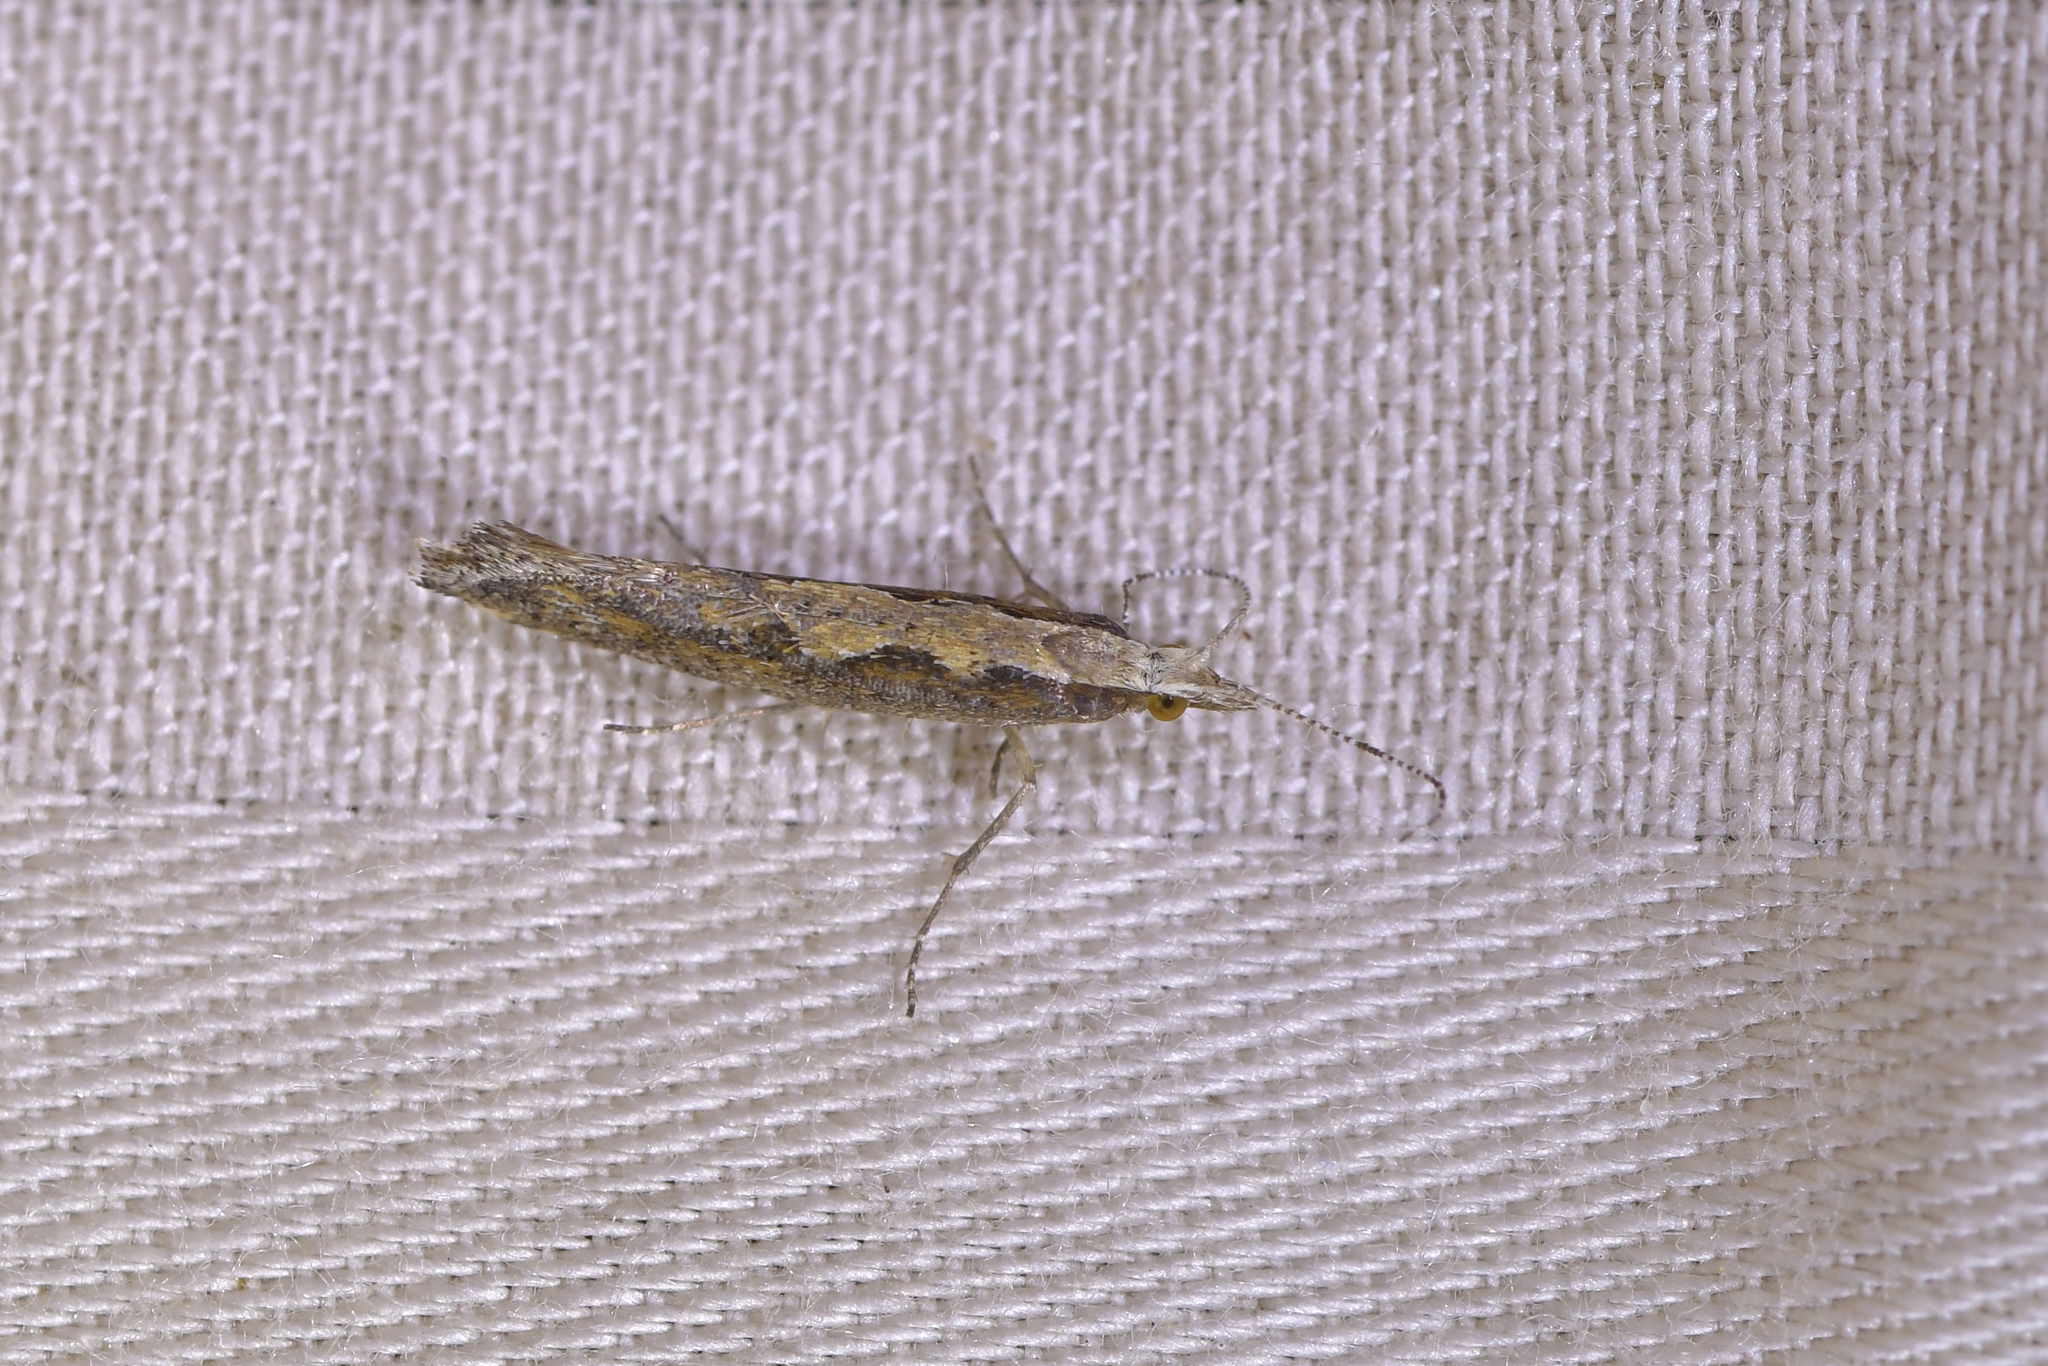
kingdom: Animalia
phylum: Arthropoda
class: Insecta
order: Lepidoptera
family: Plutellidae
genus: Plutella
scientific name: Plutella xylostella
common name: Diamond-back moth
